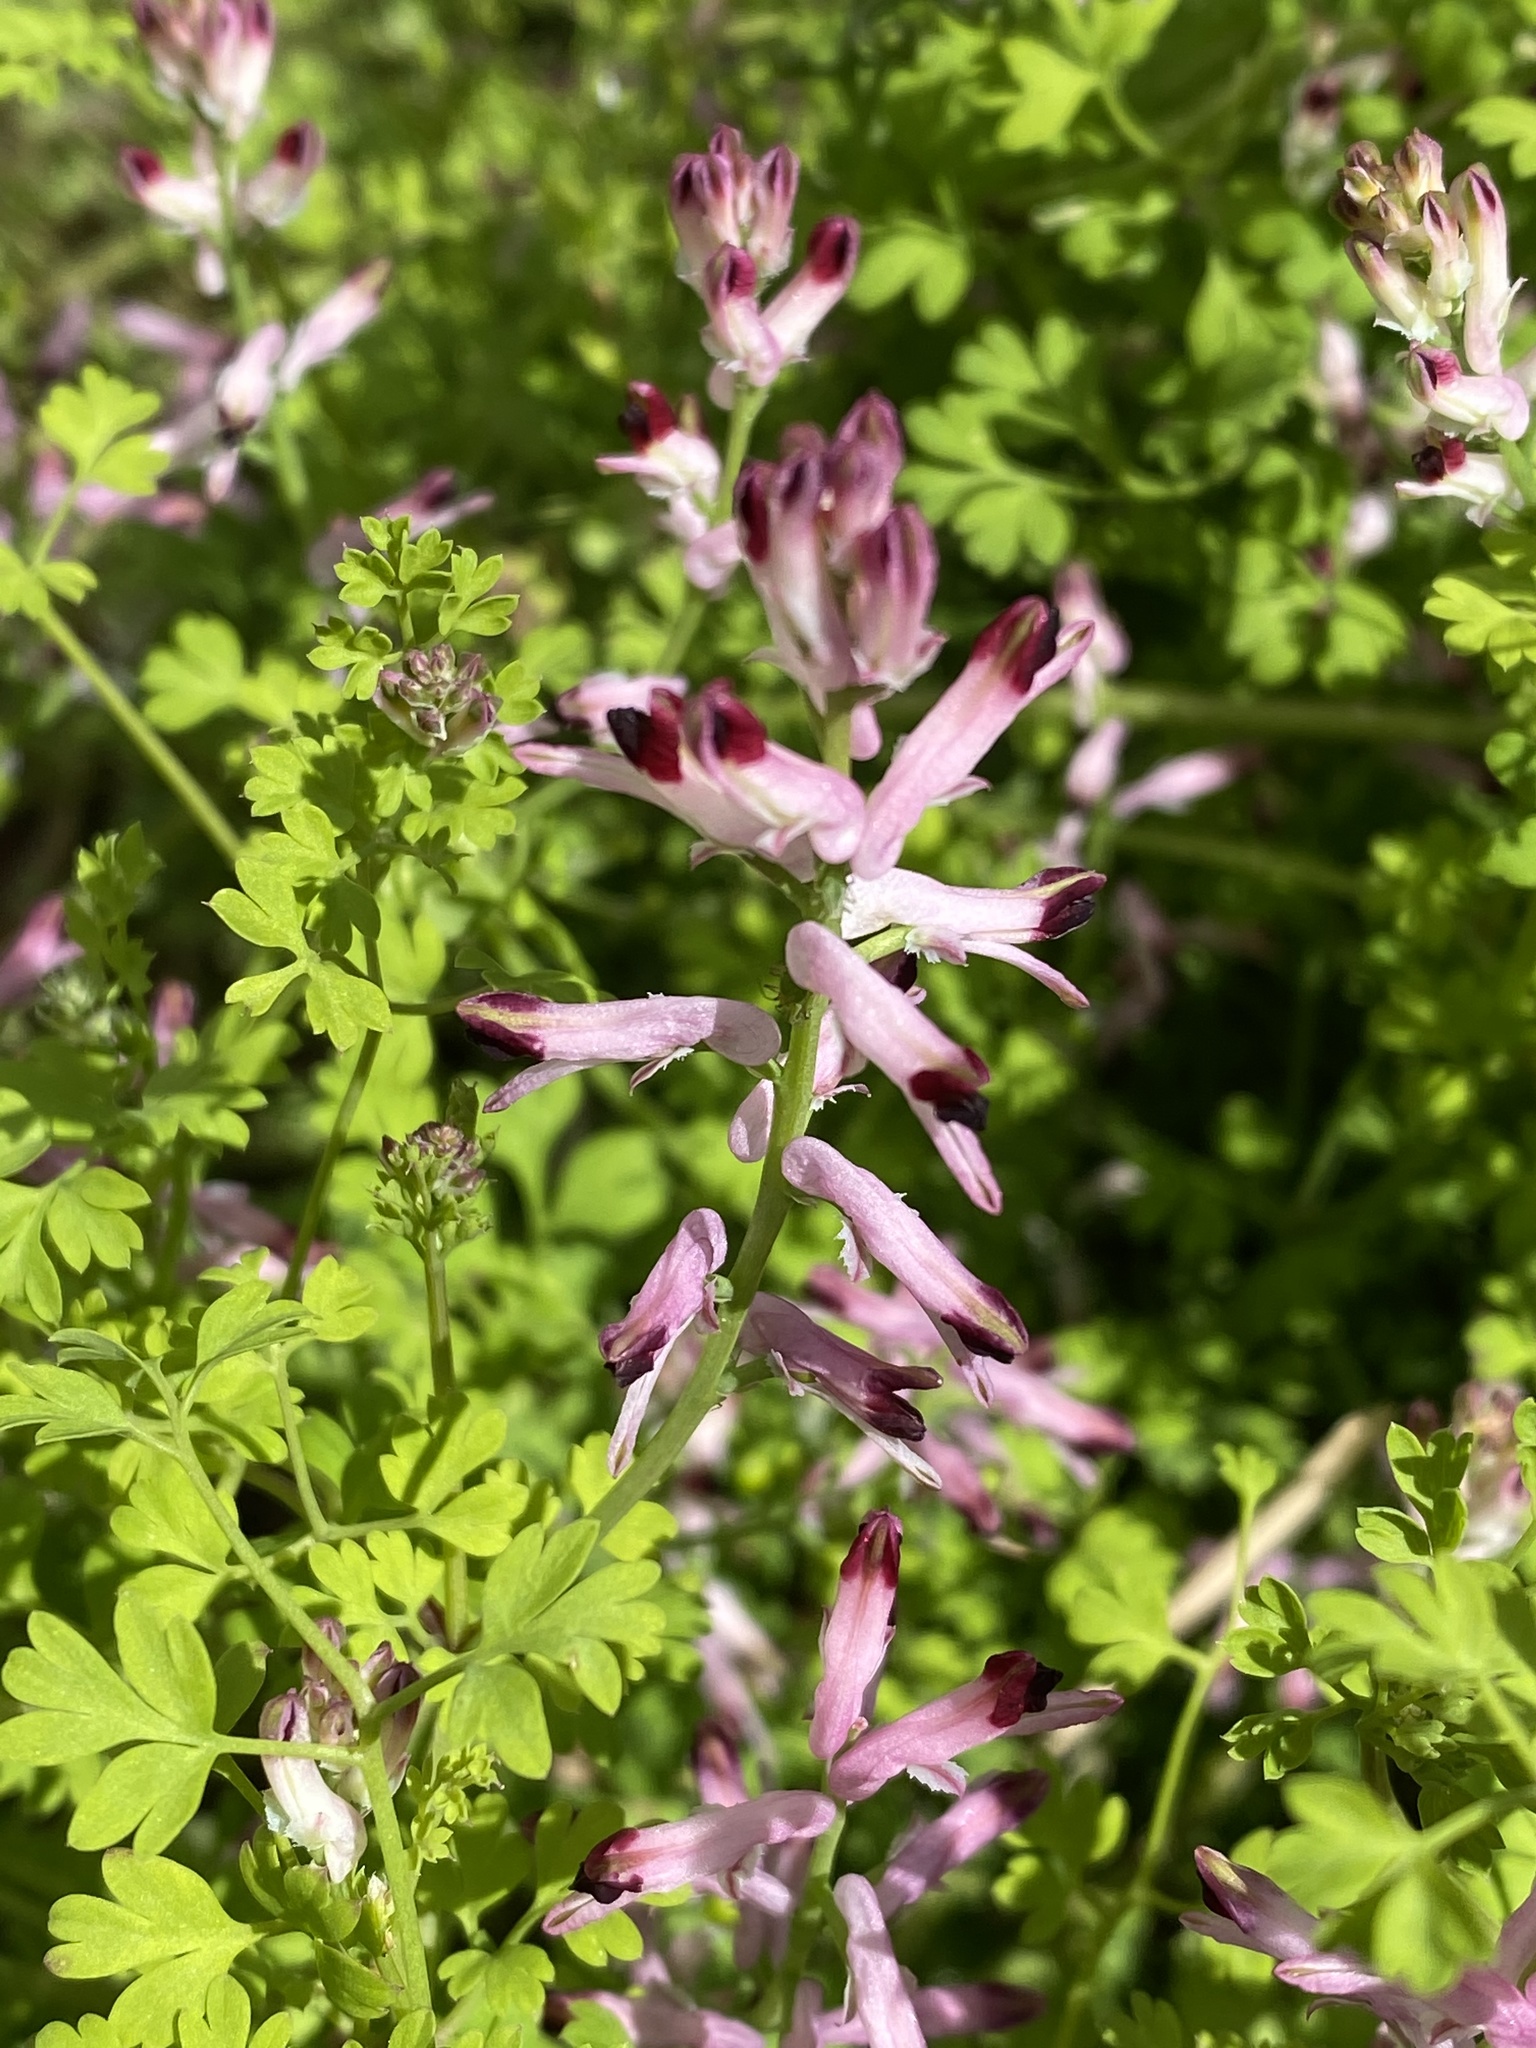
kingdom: Plantae
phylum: Tracheophyta
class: Magnoliopsida
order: Ranunculales
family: Papaveraceae
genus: Fumaria
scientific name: Fumaria muralis
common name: Common ramping-fumitory
